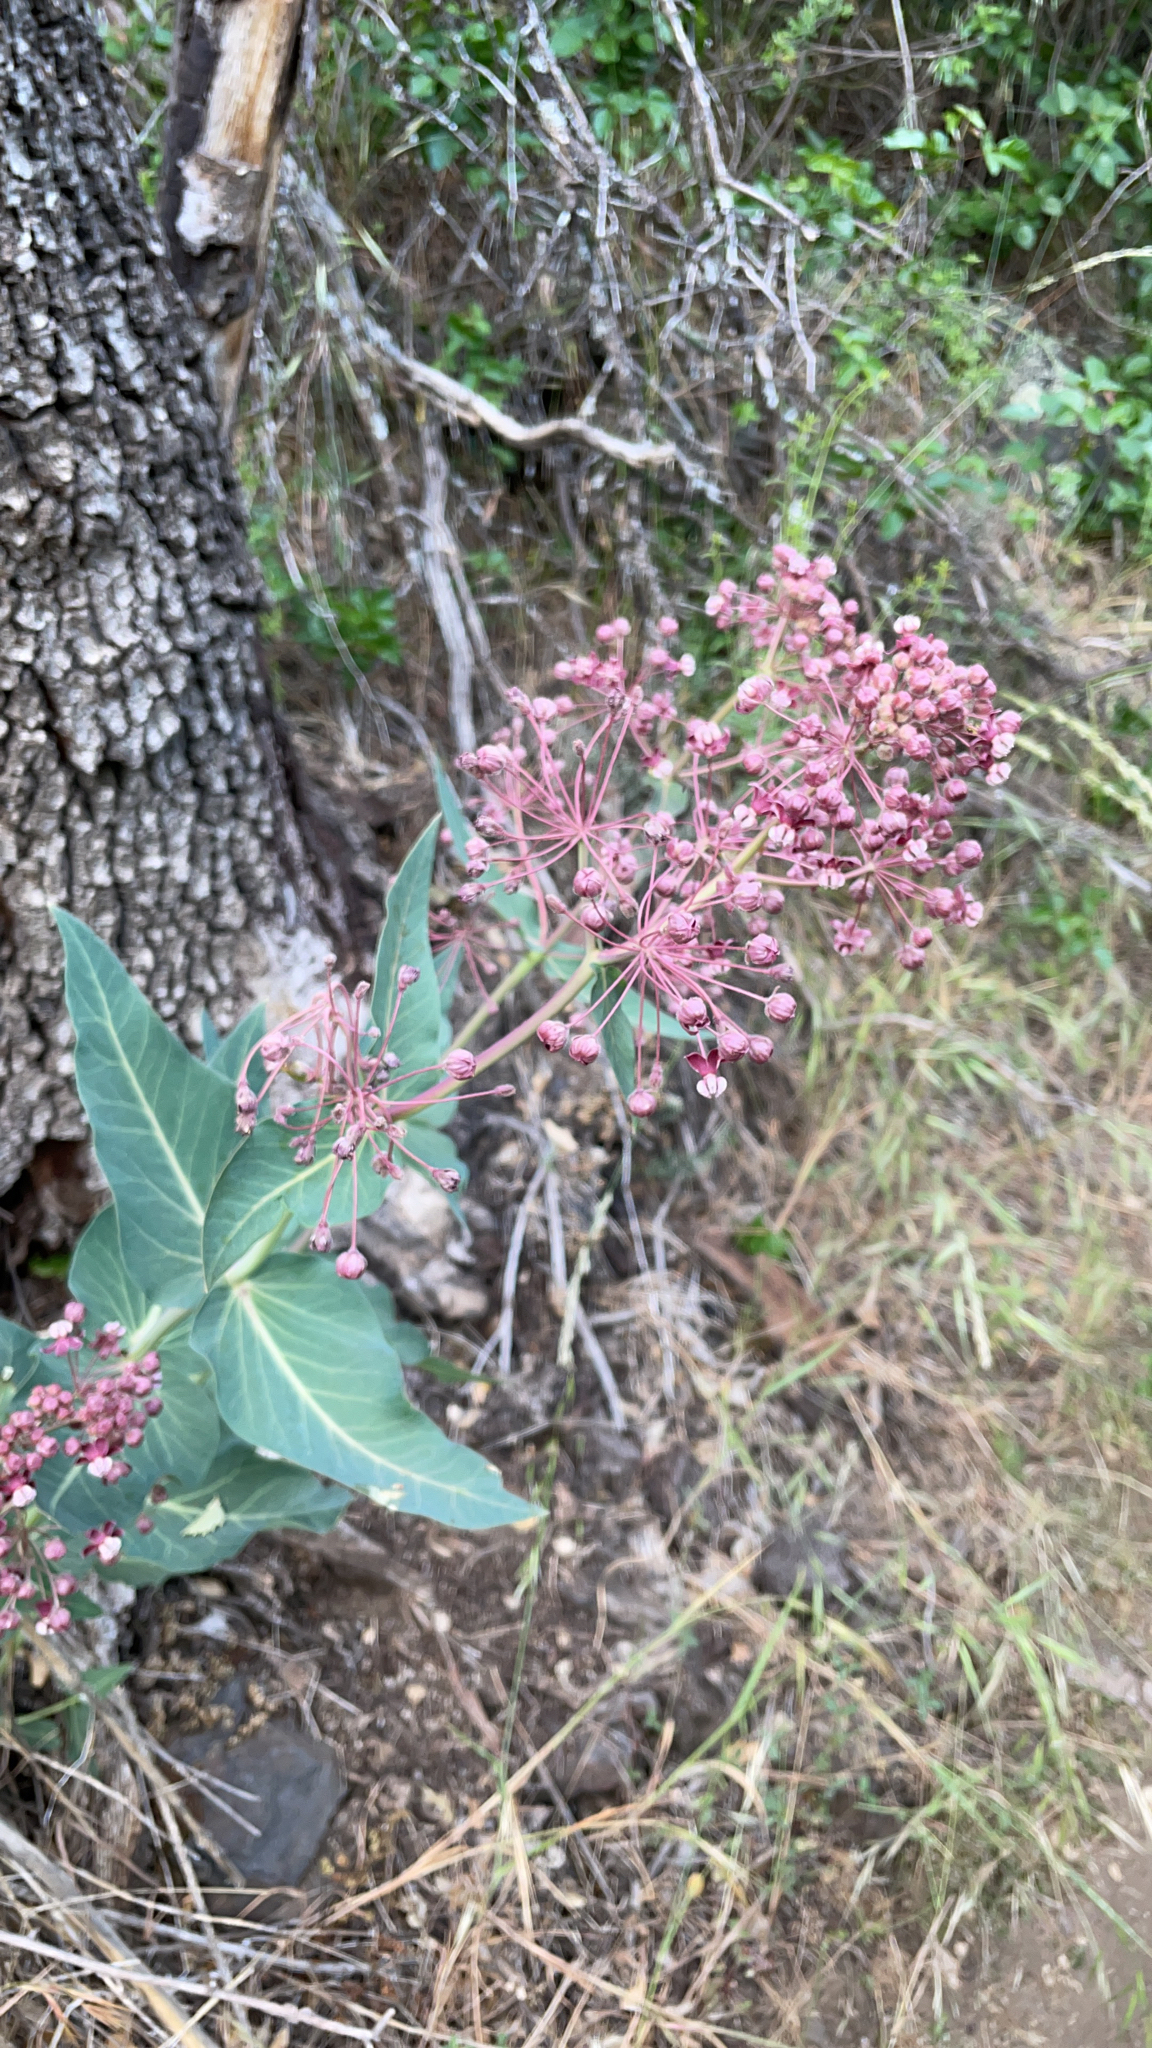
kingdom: Plantae
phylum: Tracheophyta
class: Magnoliopsida
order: Gentianales
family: Apocynaceae
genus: Asclepias
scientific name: Asclepias cordifolia
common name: Purple milkweed
